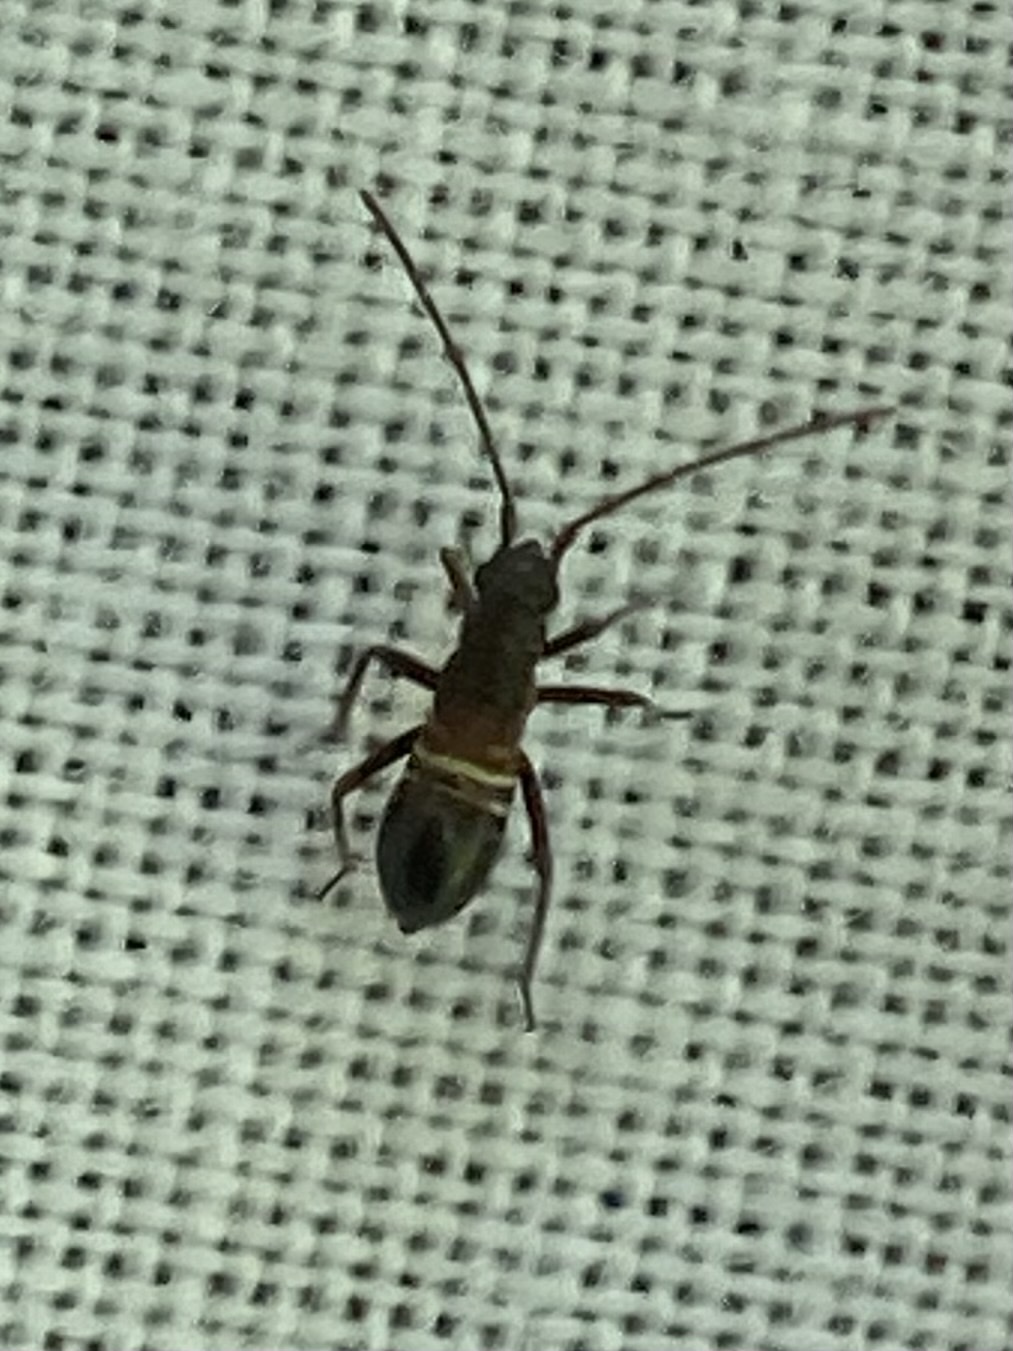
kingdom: Animalia
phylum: Arthropoda
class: Insecta
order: Hemiptera
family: Miridae
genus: Miris
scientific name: Miris striatus
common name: Fine streaked bugkin
